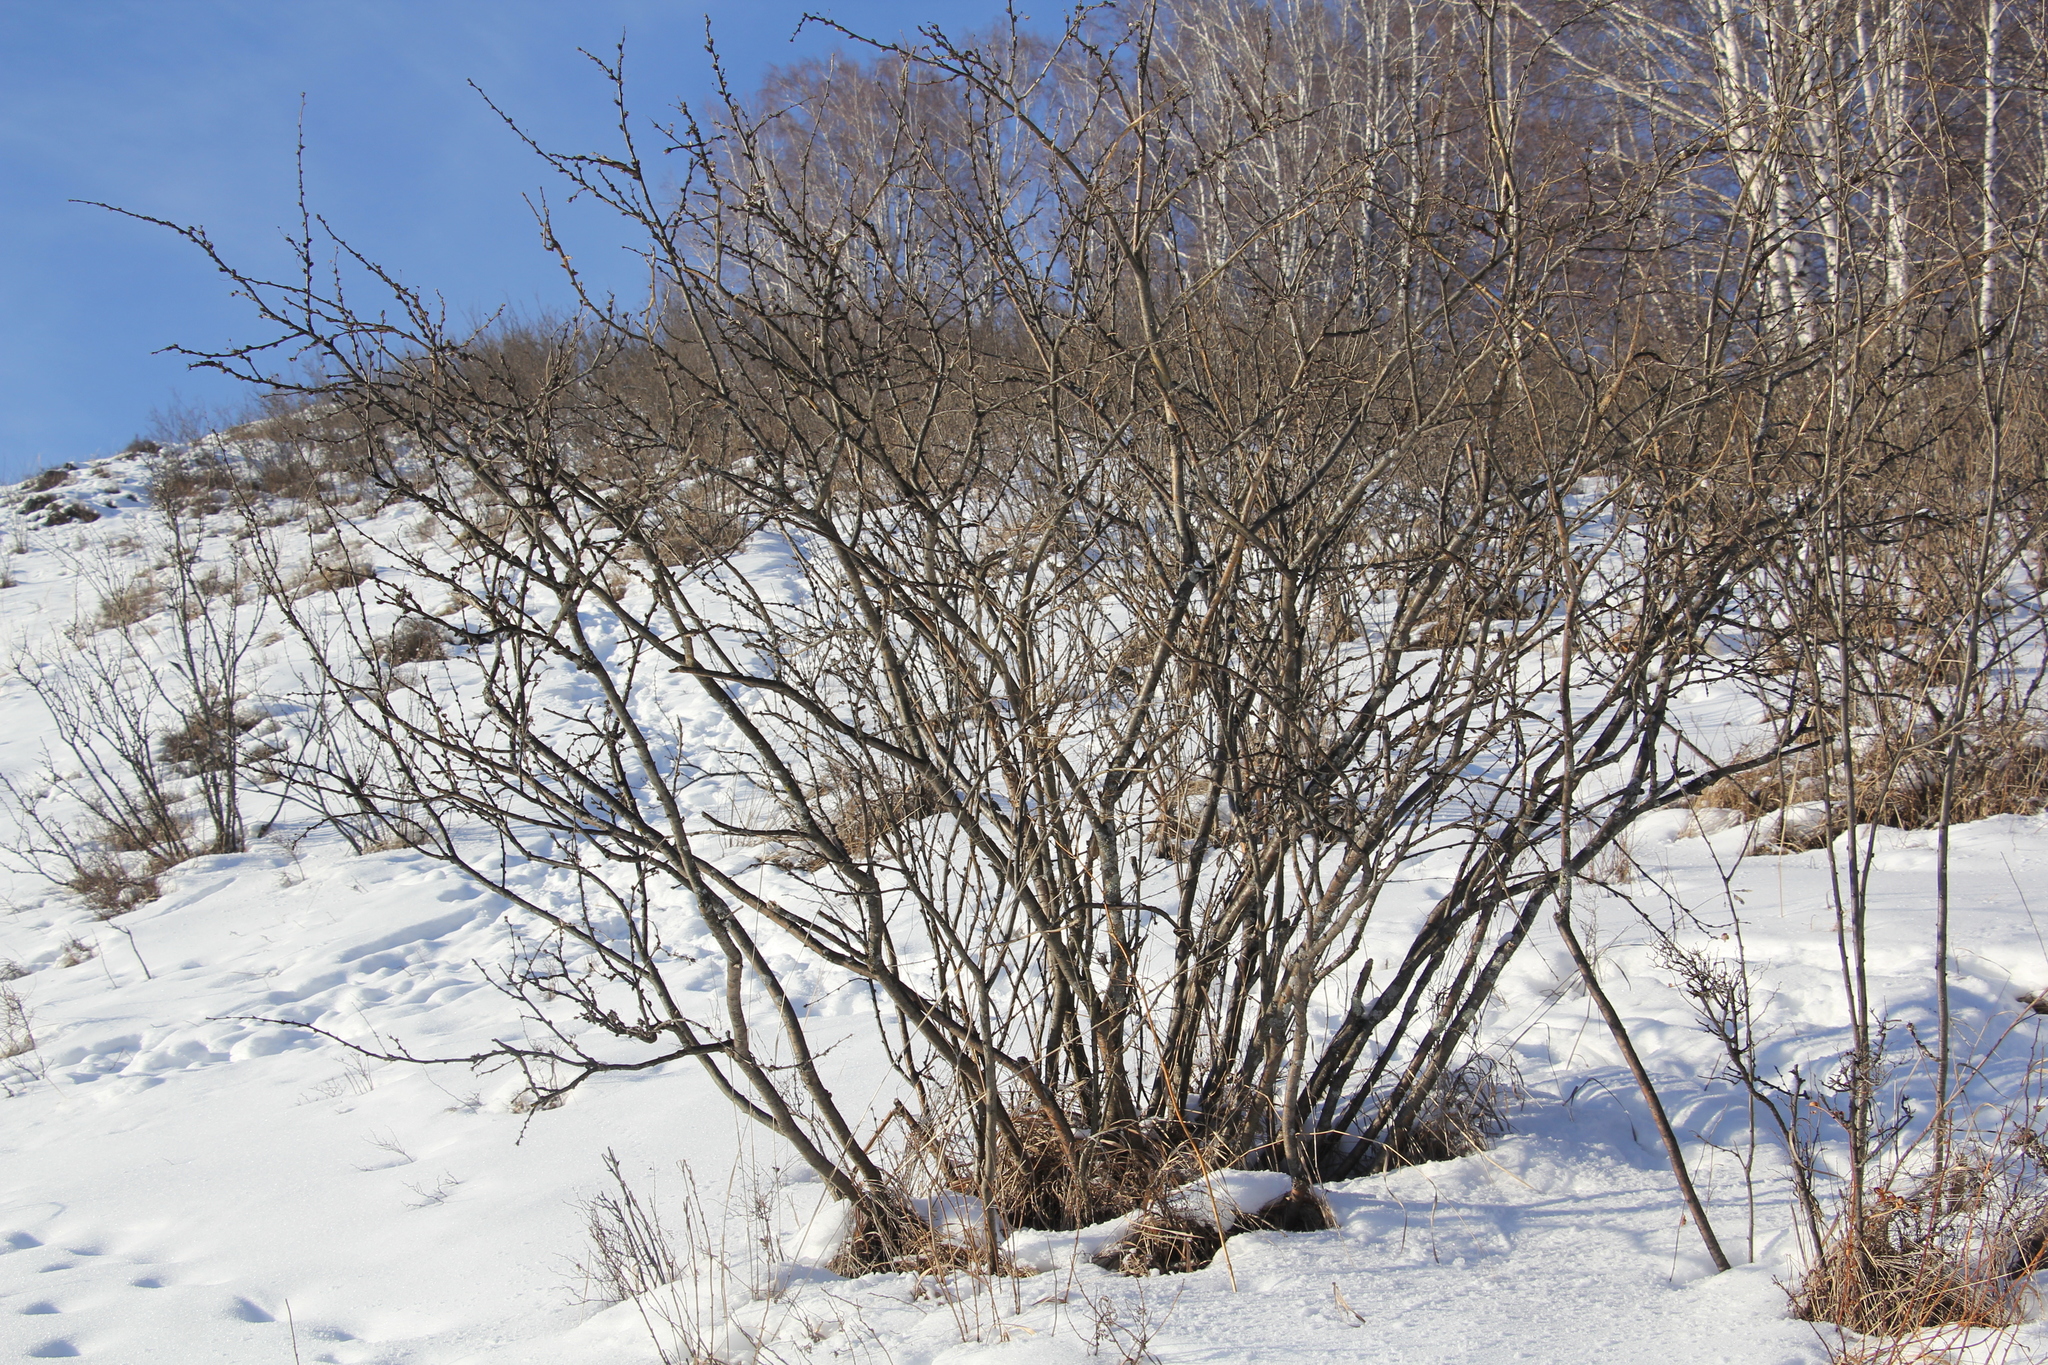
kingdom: Plantae
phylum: Tracheophyta
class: Magnoliopsida
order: Fabales
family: Fabaceae
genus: Caragana
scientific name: Caragana arborescens
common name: Siberian peashrub
